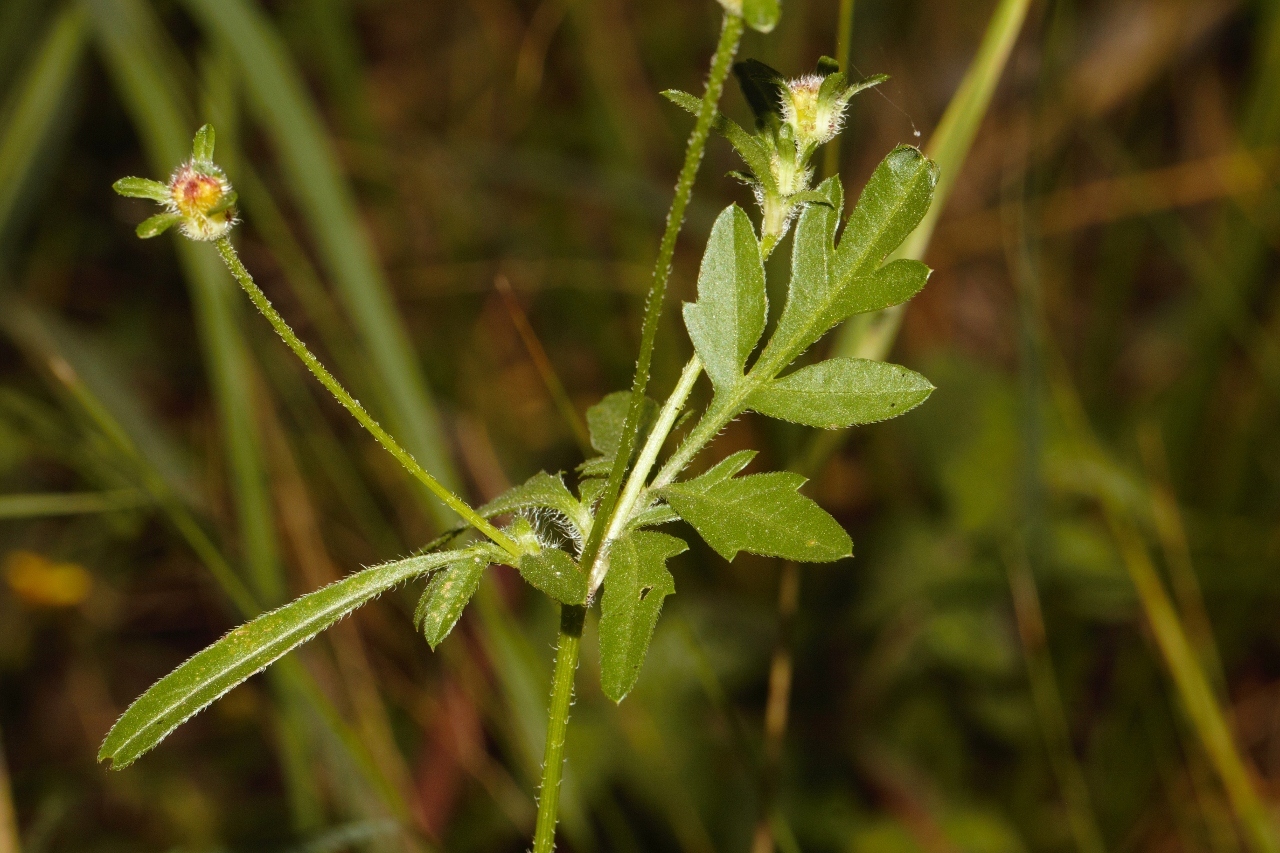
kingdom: Plantae
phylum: Tracheophyta
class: Magnoliopsida
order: Asterales
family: Asteraceae
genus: Bidens
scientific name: Bidens schimperi
